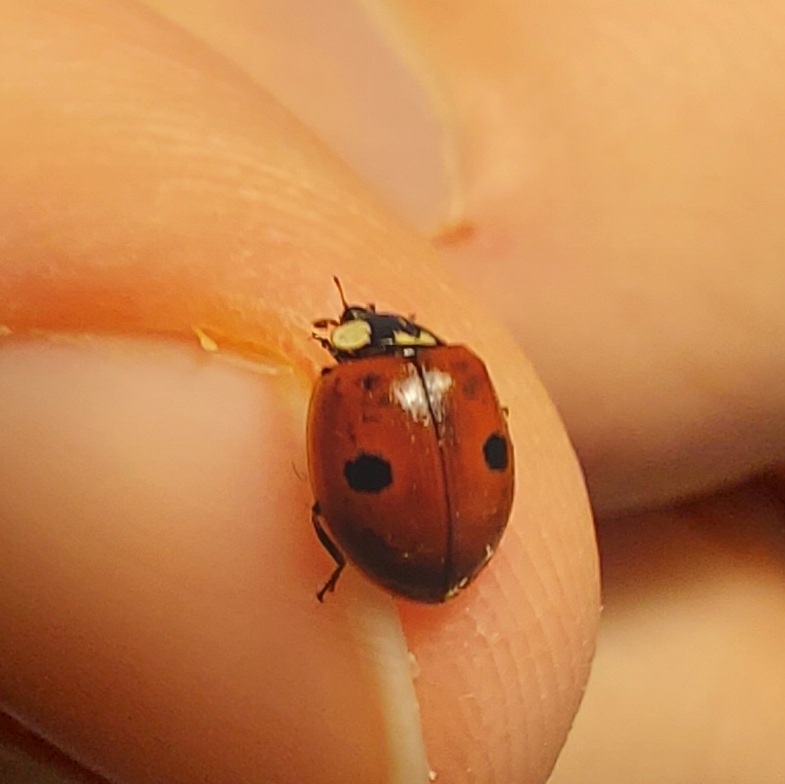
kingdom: Animalia
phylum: Arthropoda
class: Insecta
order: Coleoptera
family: Coccinellidae
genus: Adalia
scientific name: Adalia bipunctata
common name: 2-spot ladybird
